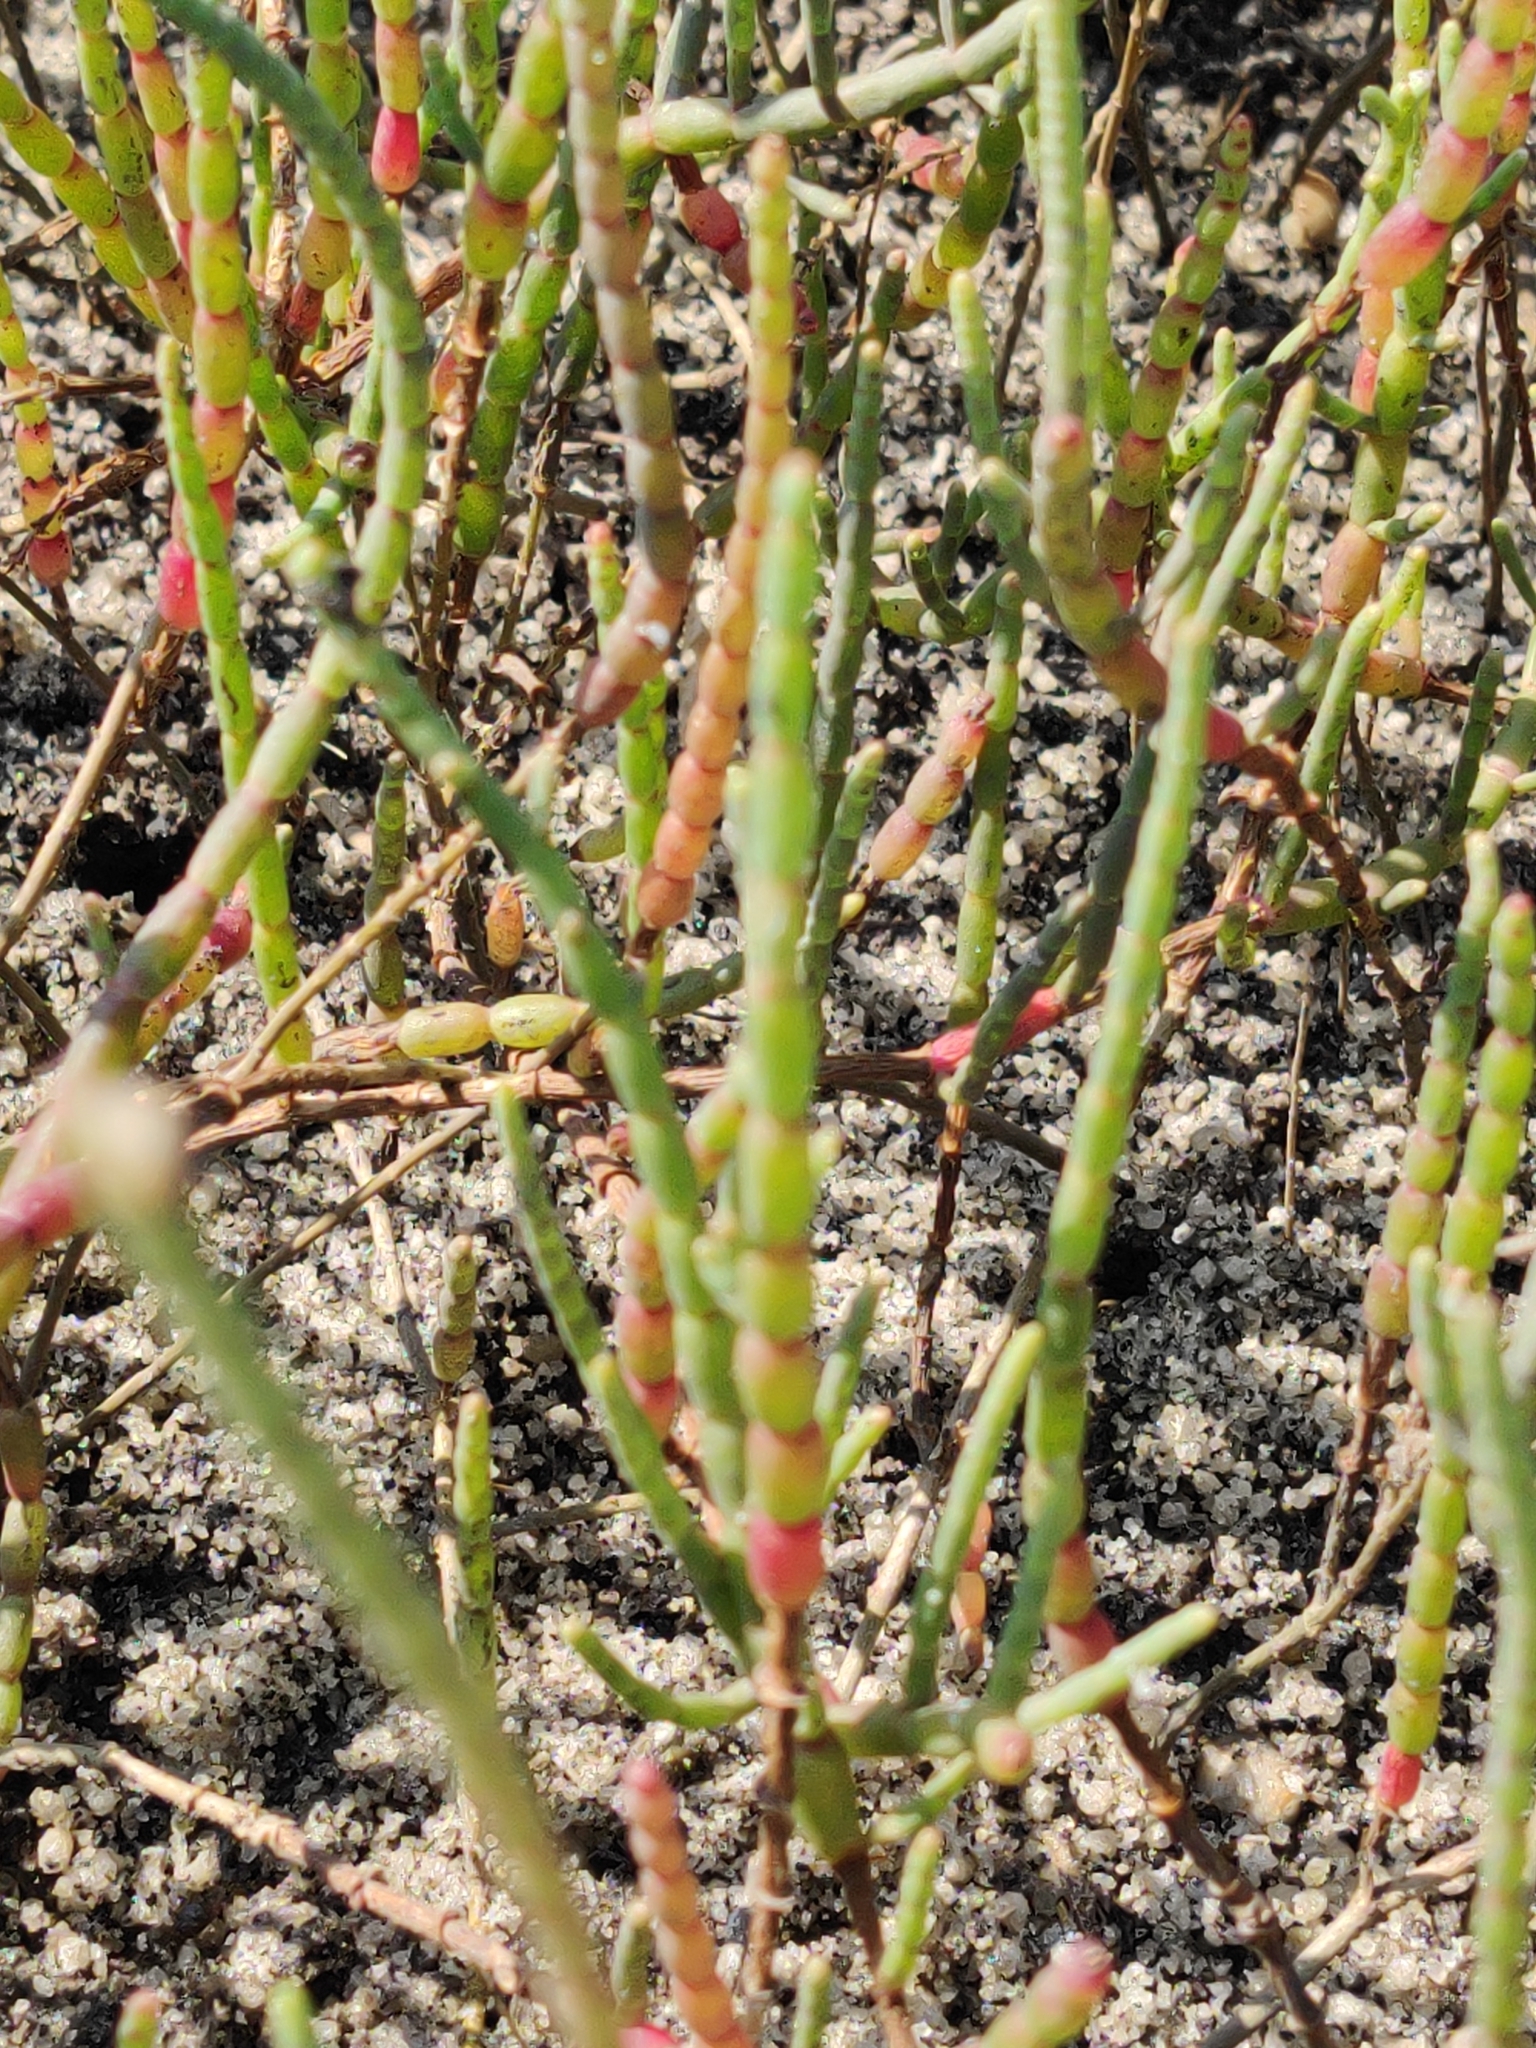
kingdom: Plantae
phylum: Tracheophyta
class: Magnoliopsida
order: Caryophyllales
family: Amaranthaceae
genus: Salicornia
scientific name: Salicornia ambigua
